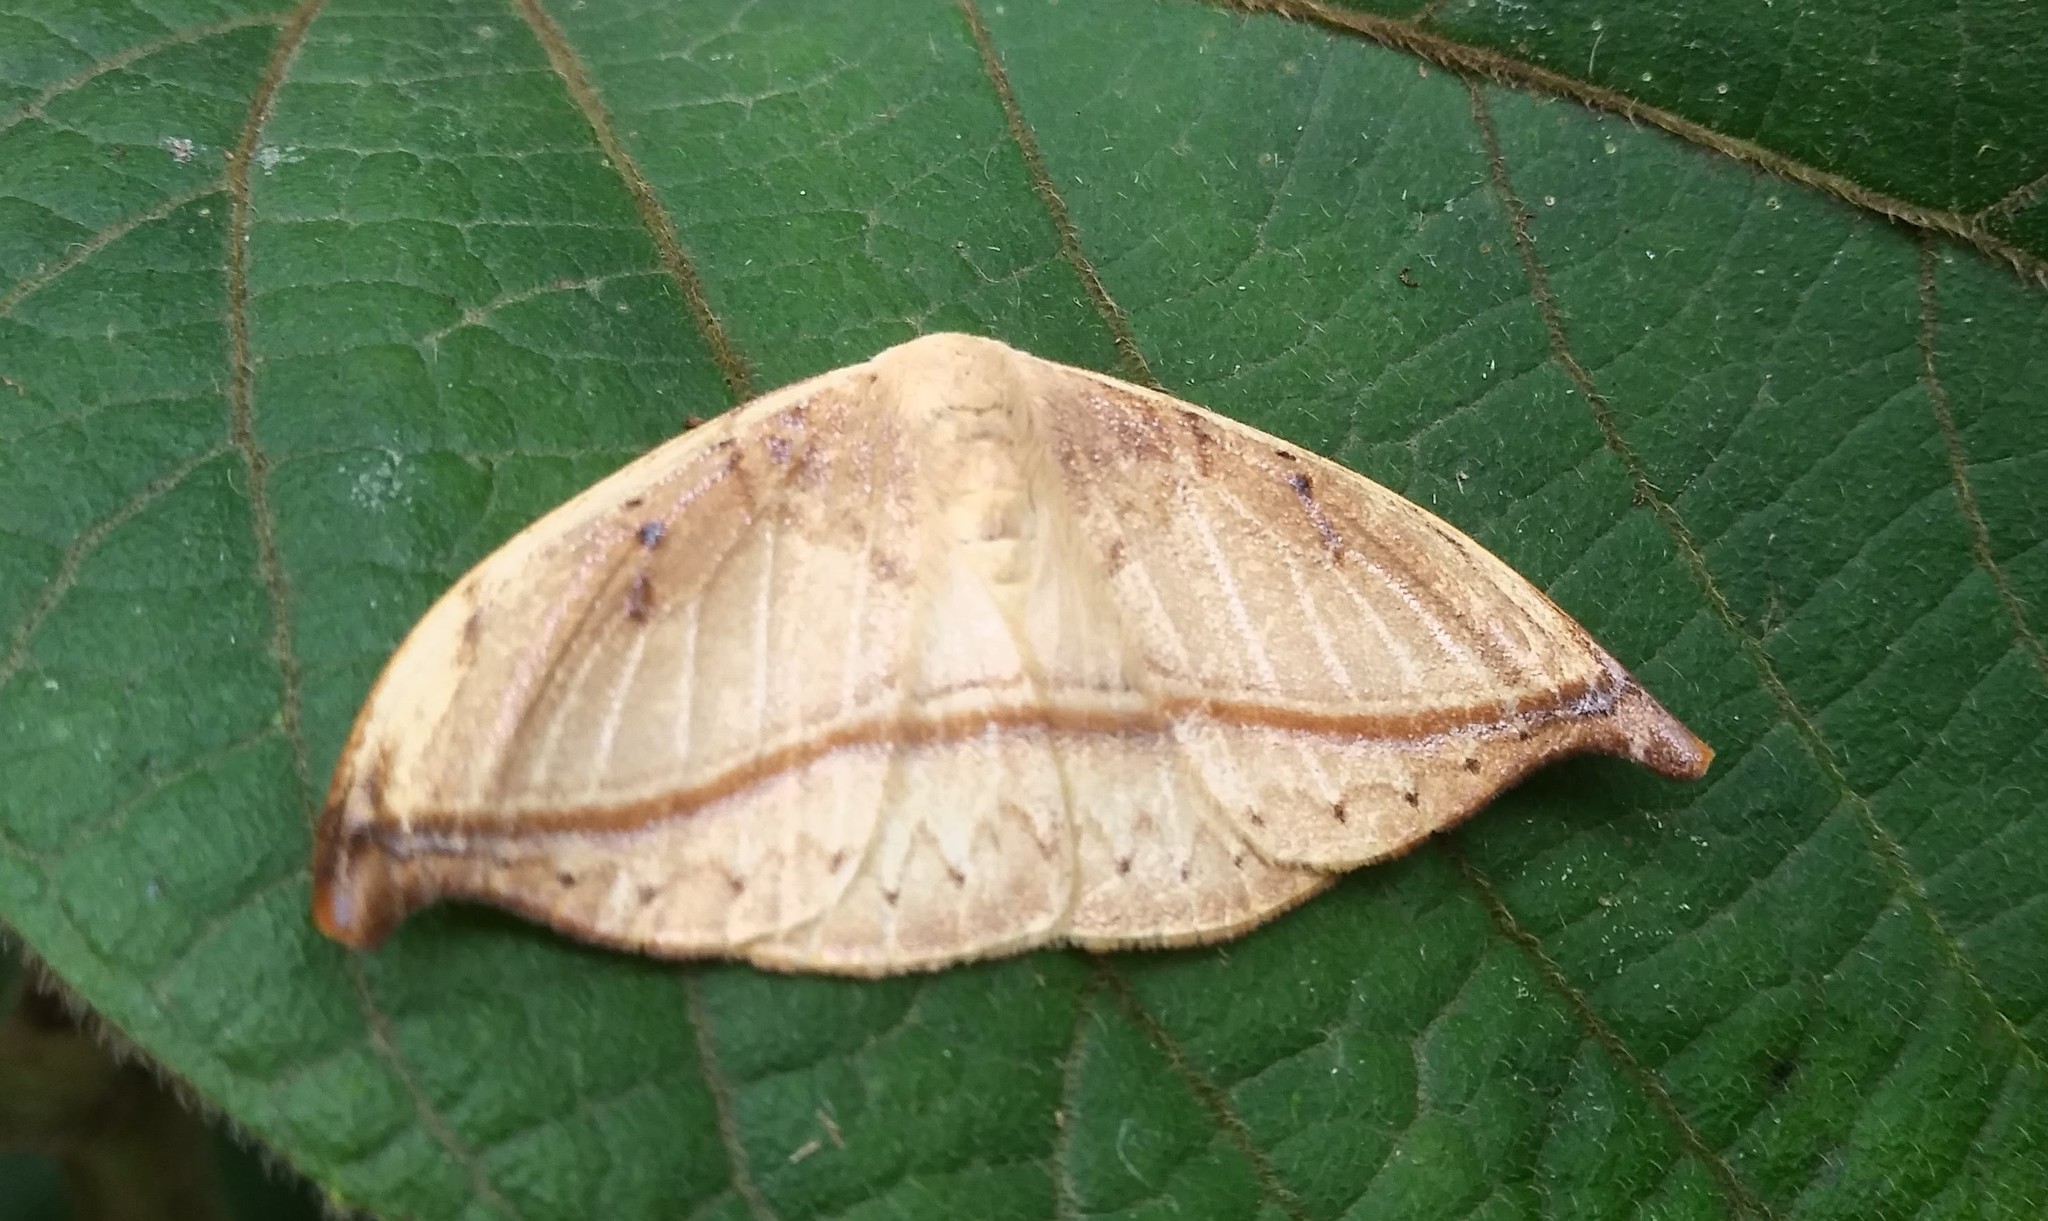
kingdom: Animalia
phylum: Arthropoda
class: Insecta
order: Lepidoptera
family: Drepanidae
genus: Callidrepana
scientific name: Callidrepana patrana
